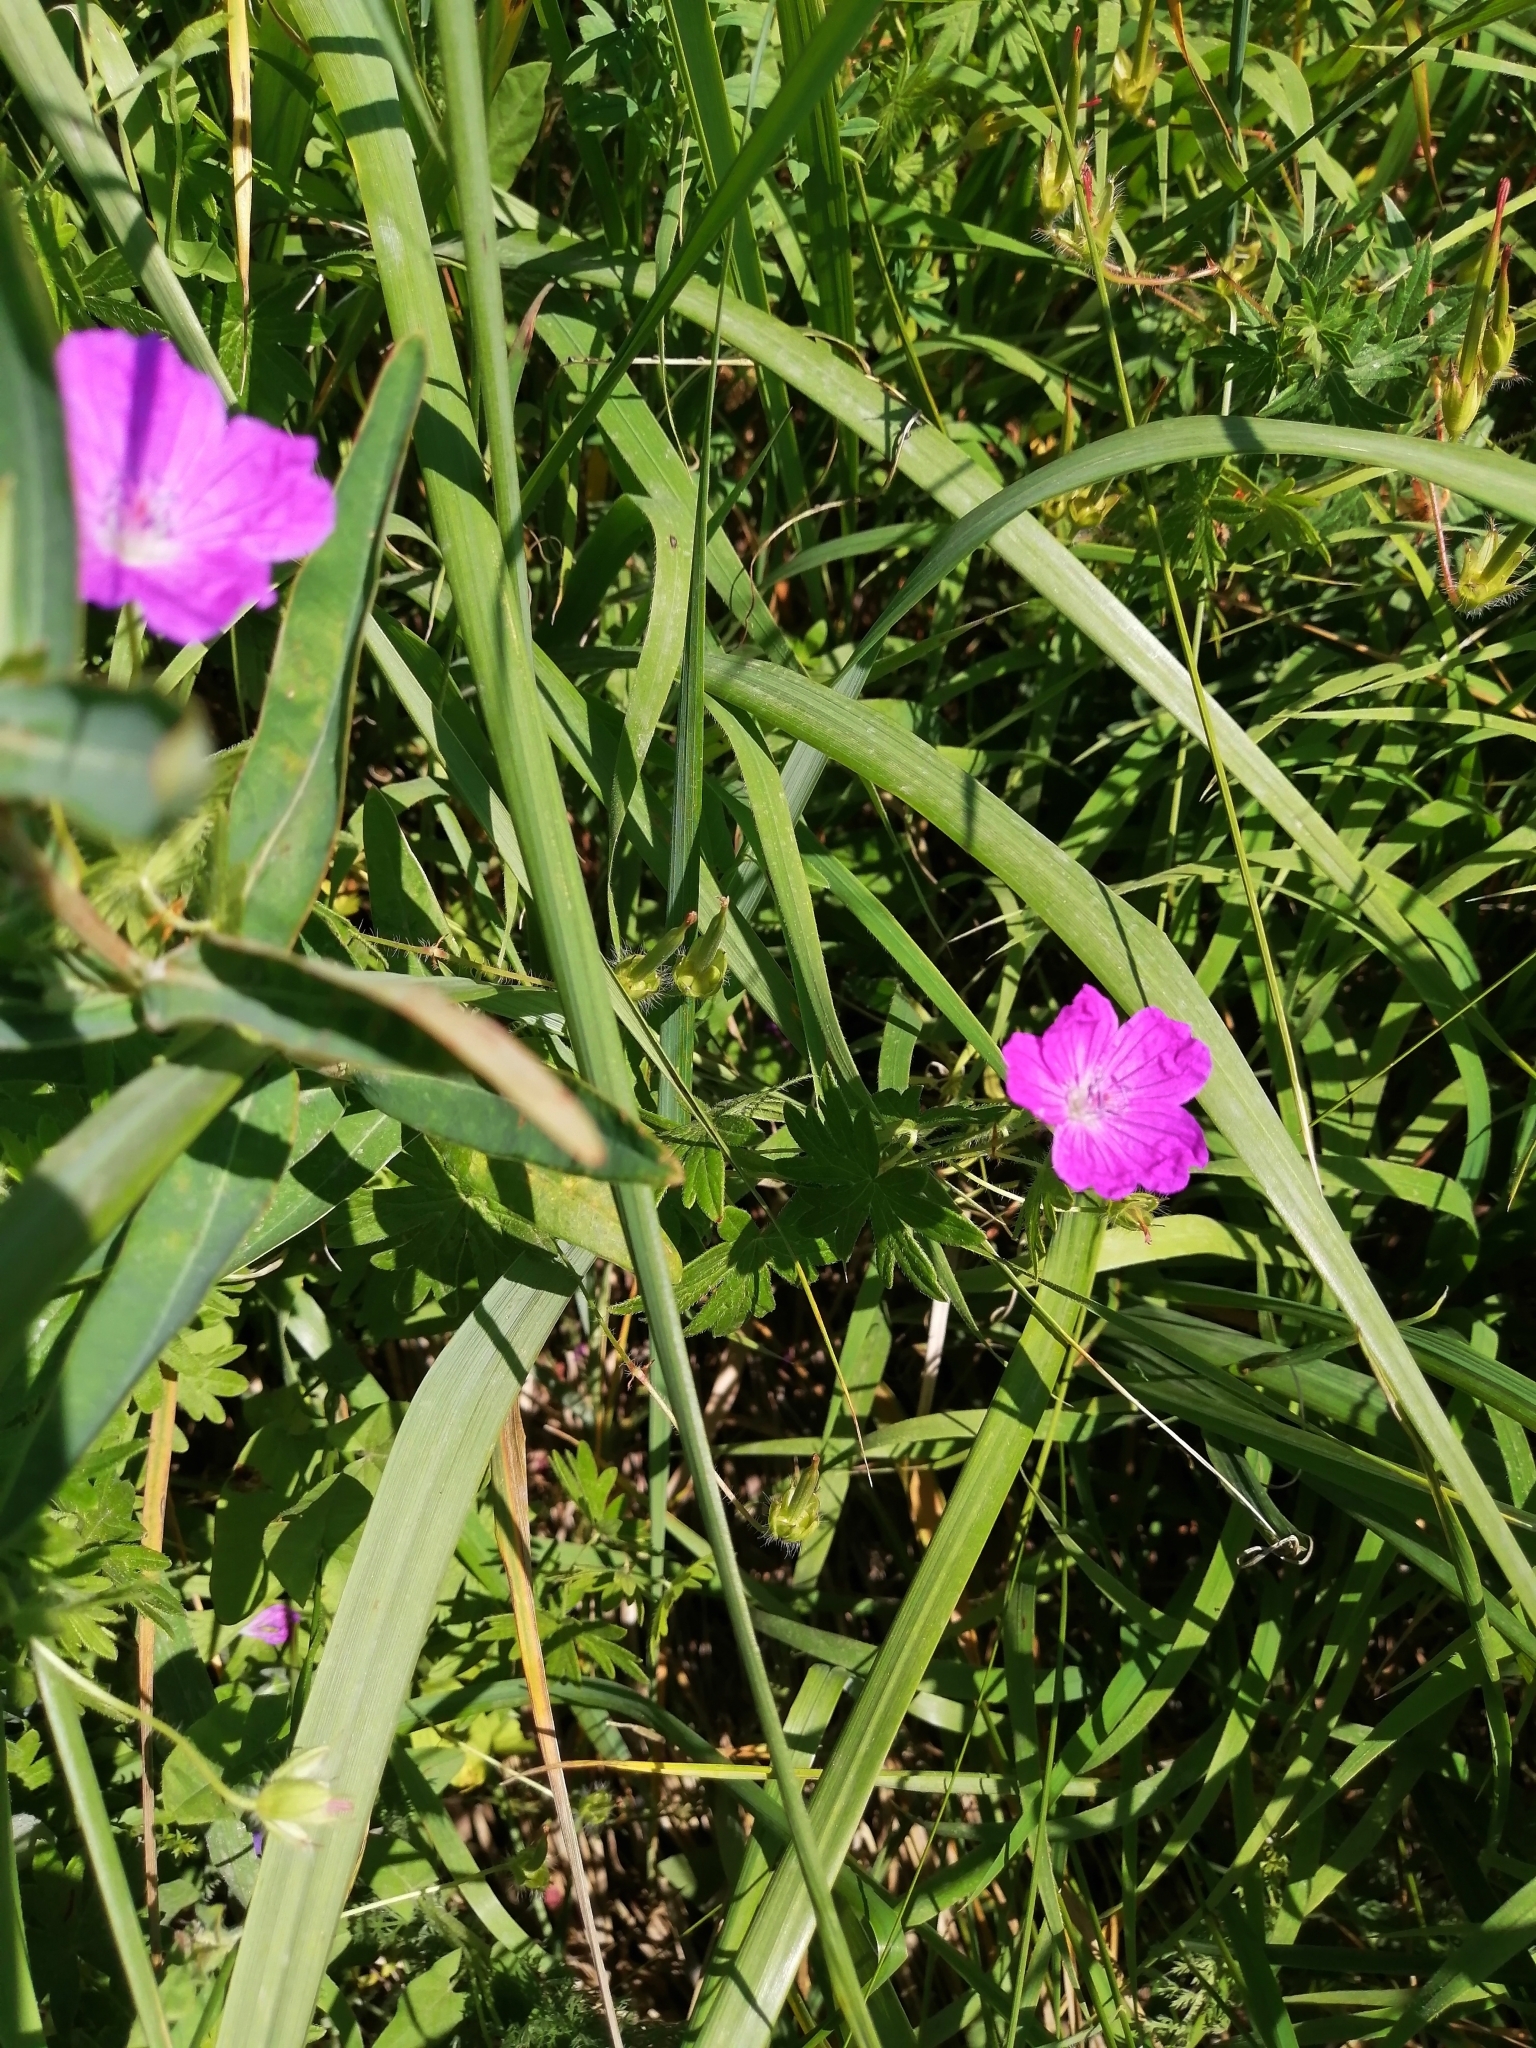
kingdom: Plantae
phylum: Tracheophyta
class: Magnoliopsida
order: Geraniales
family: Geraniaceae
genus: Geranium
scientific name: Geranium sanguineum
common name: Bloody crane's-bill
